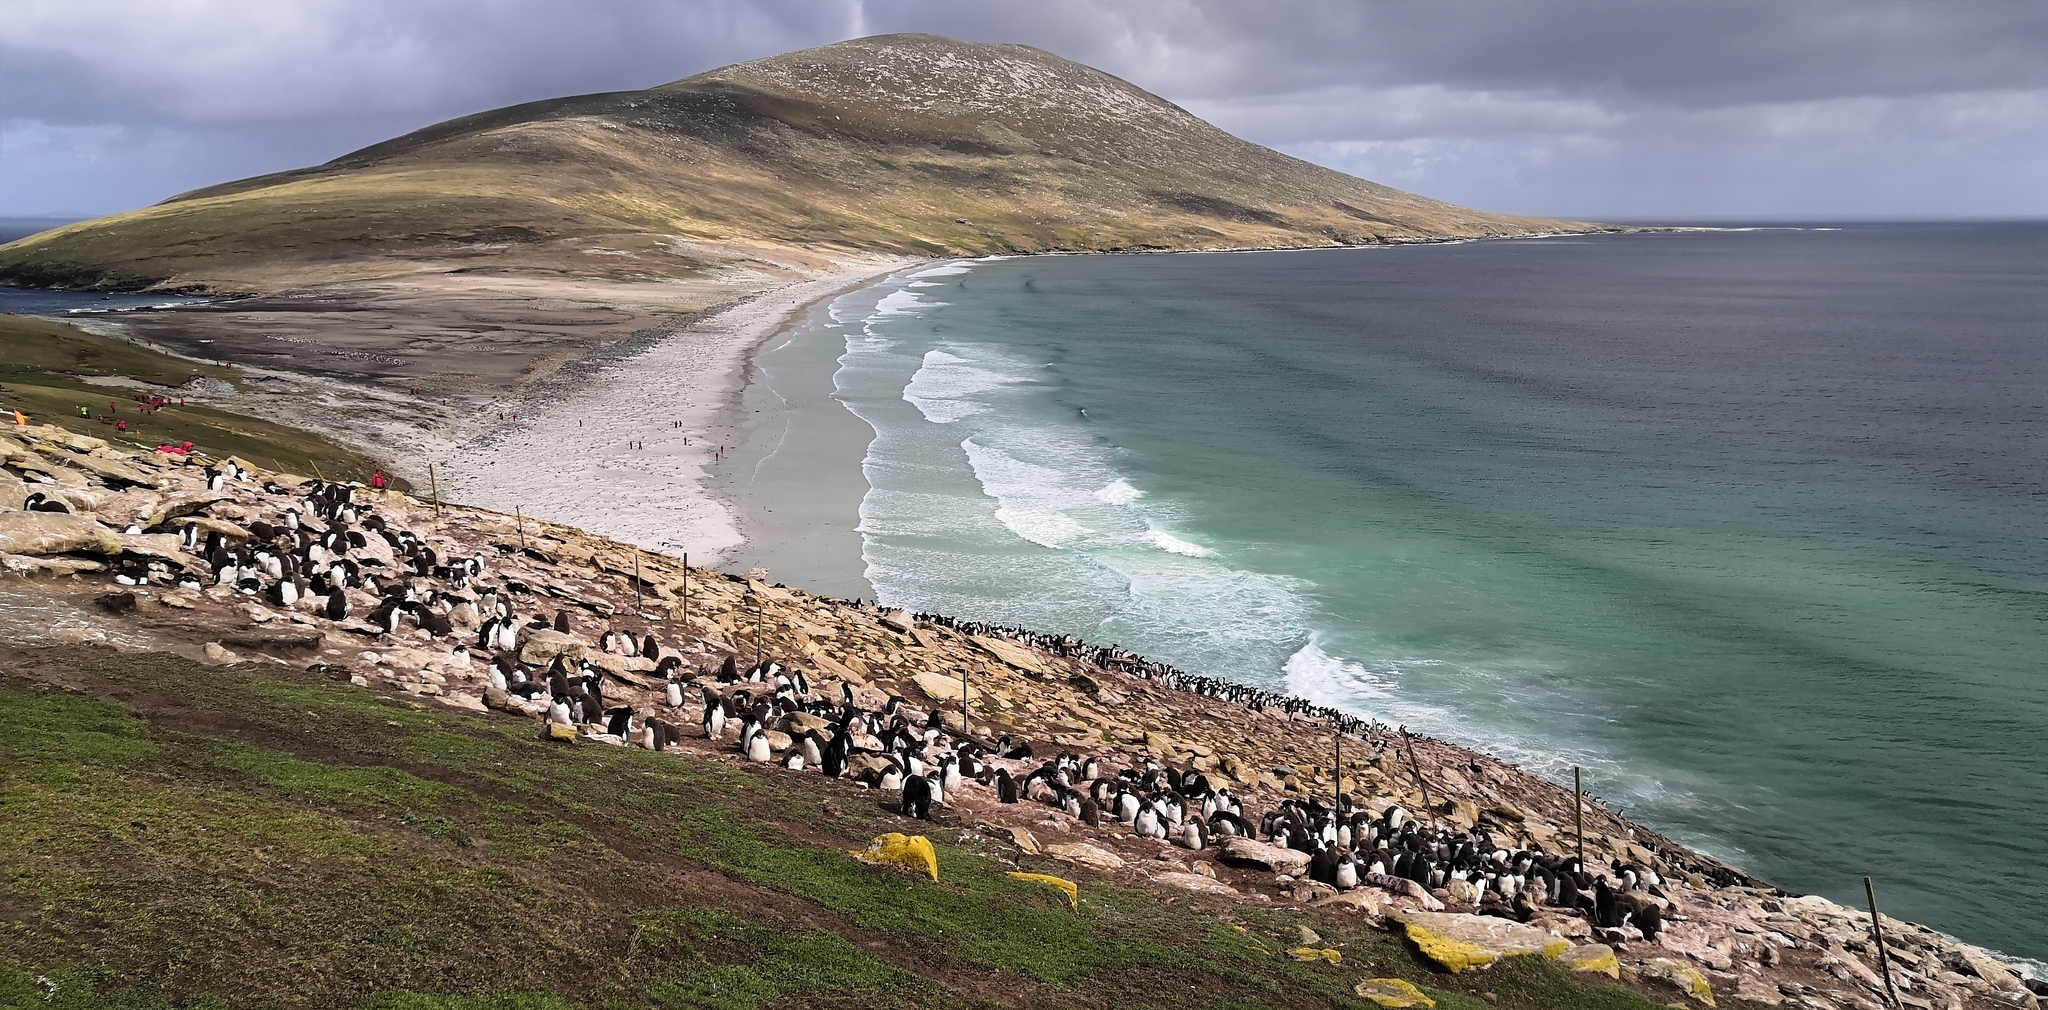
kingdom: Animalia
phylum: Chordata
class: Aves
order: Sphenisciformes
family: Spheniscidae
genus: Eudyptes
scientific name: Eudyptes chrysocome
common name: Southern rockhopper penguin
